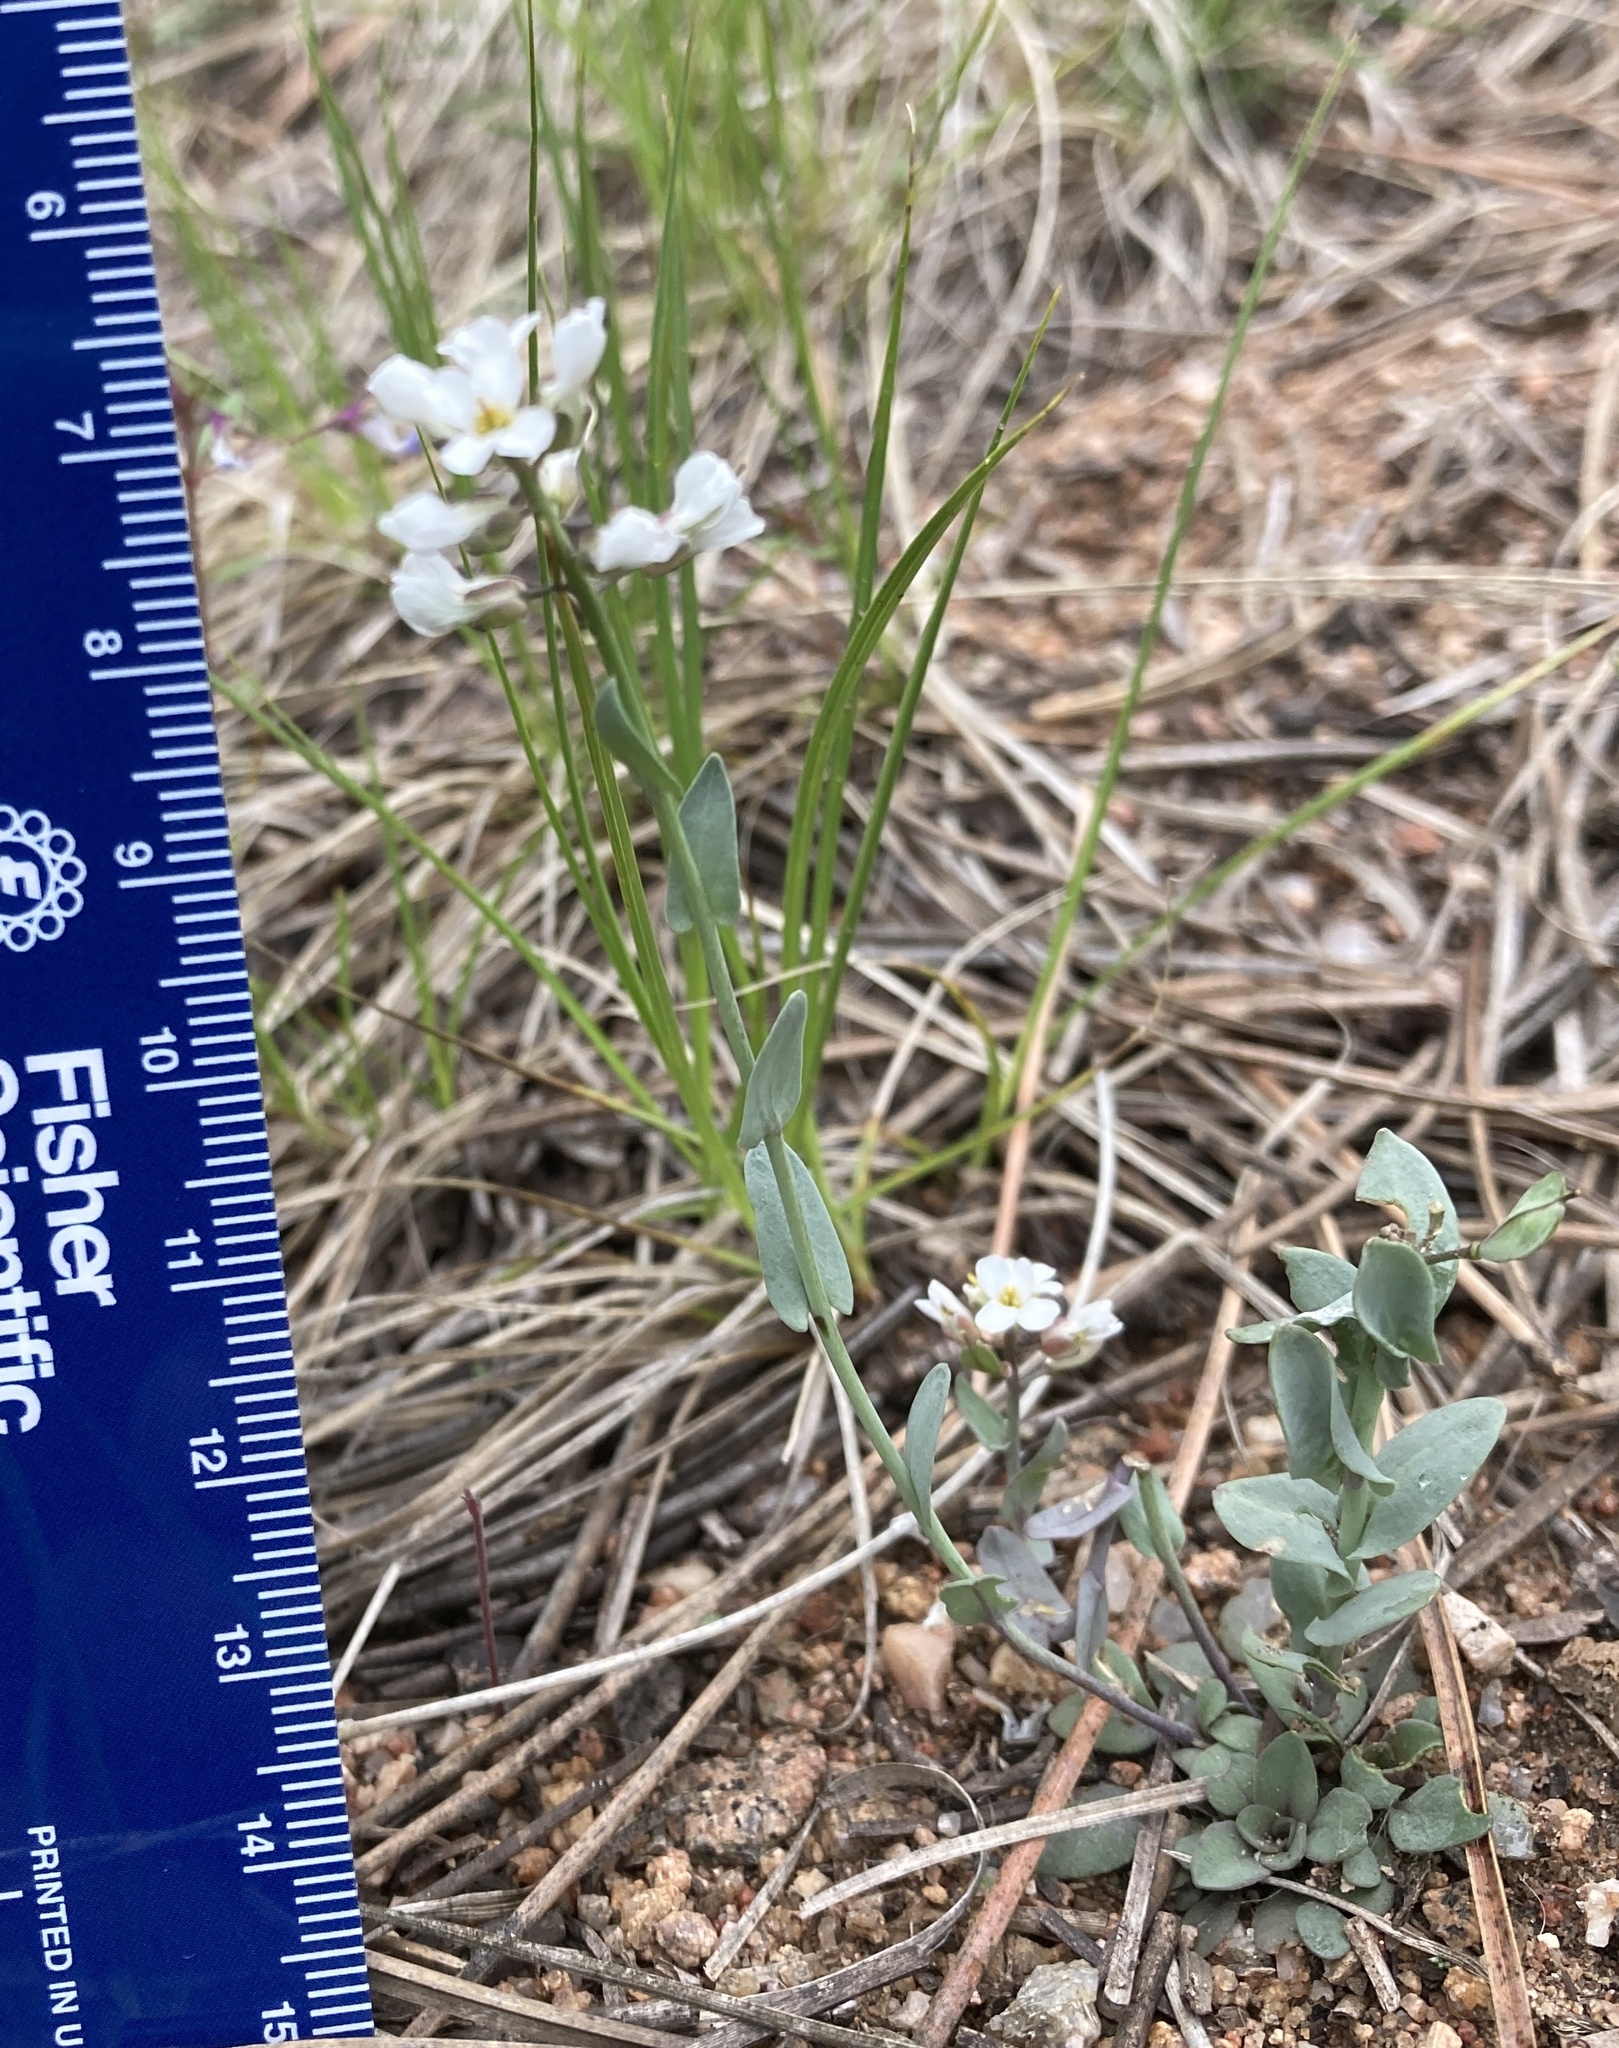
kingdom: Plantae
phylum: Tracheophyta
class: Magnoliopsida
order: Brassicales
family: Brassicaceae
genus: Noccaea
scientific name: Noccaea fendleri
